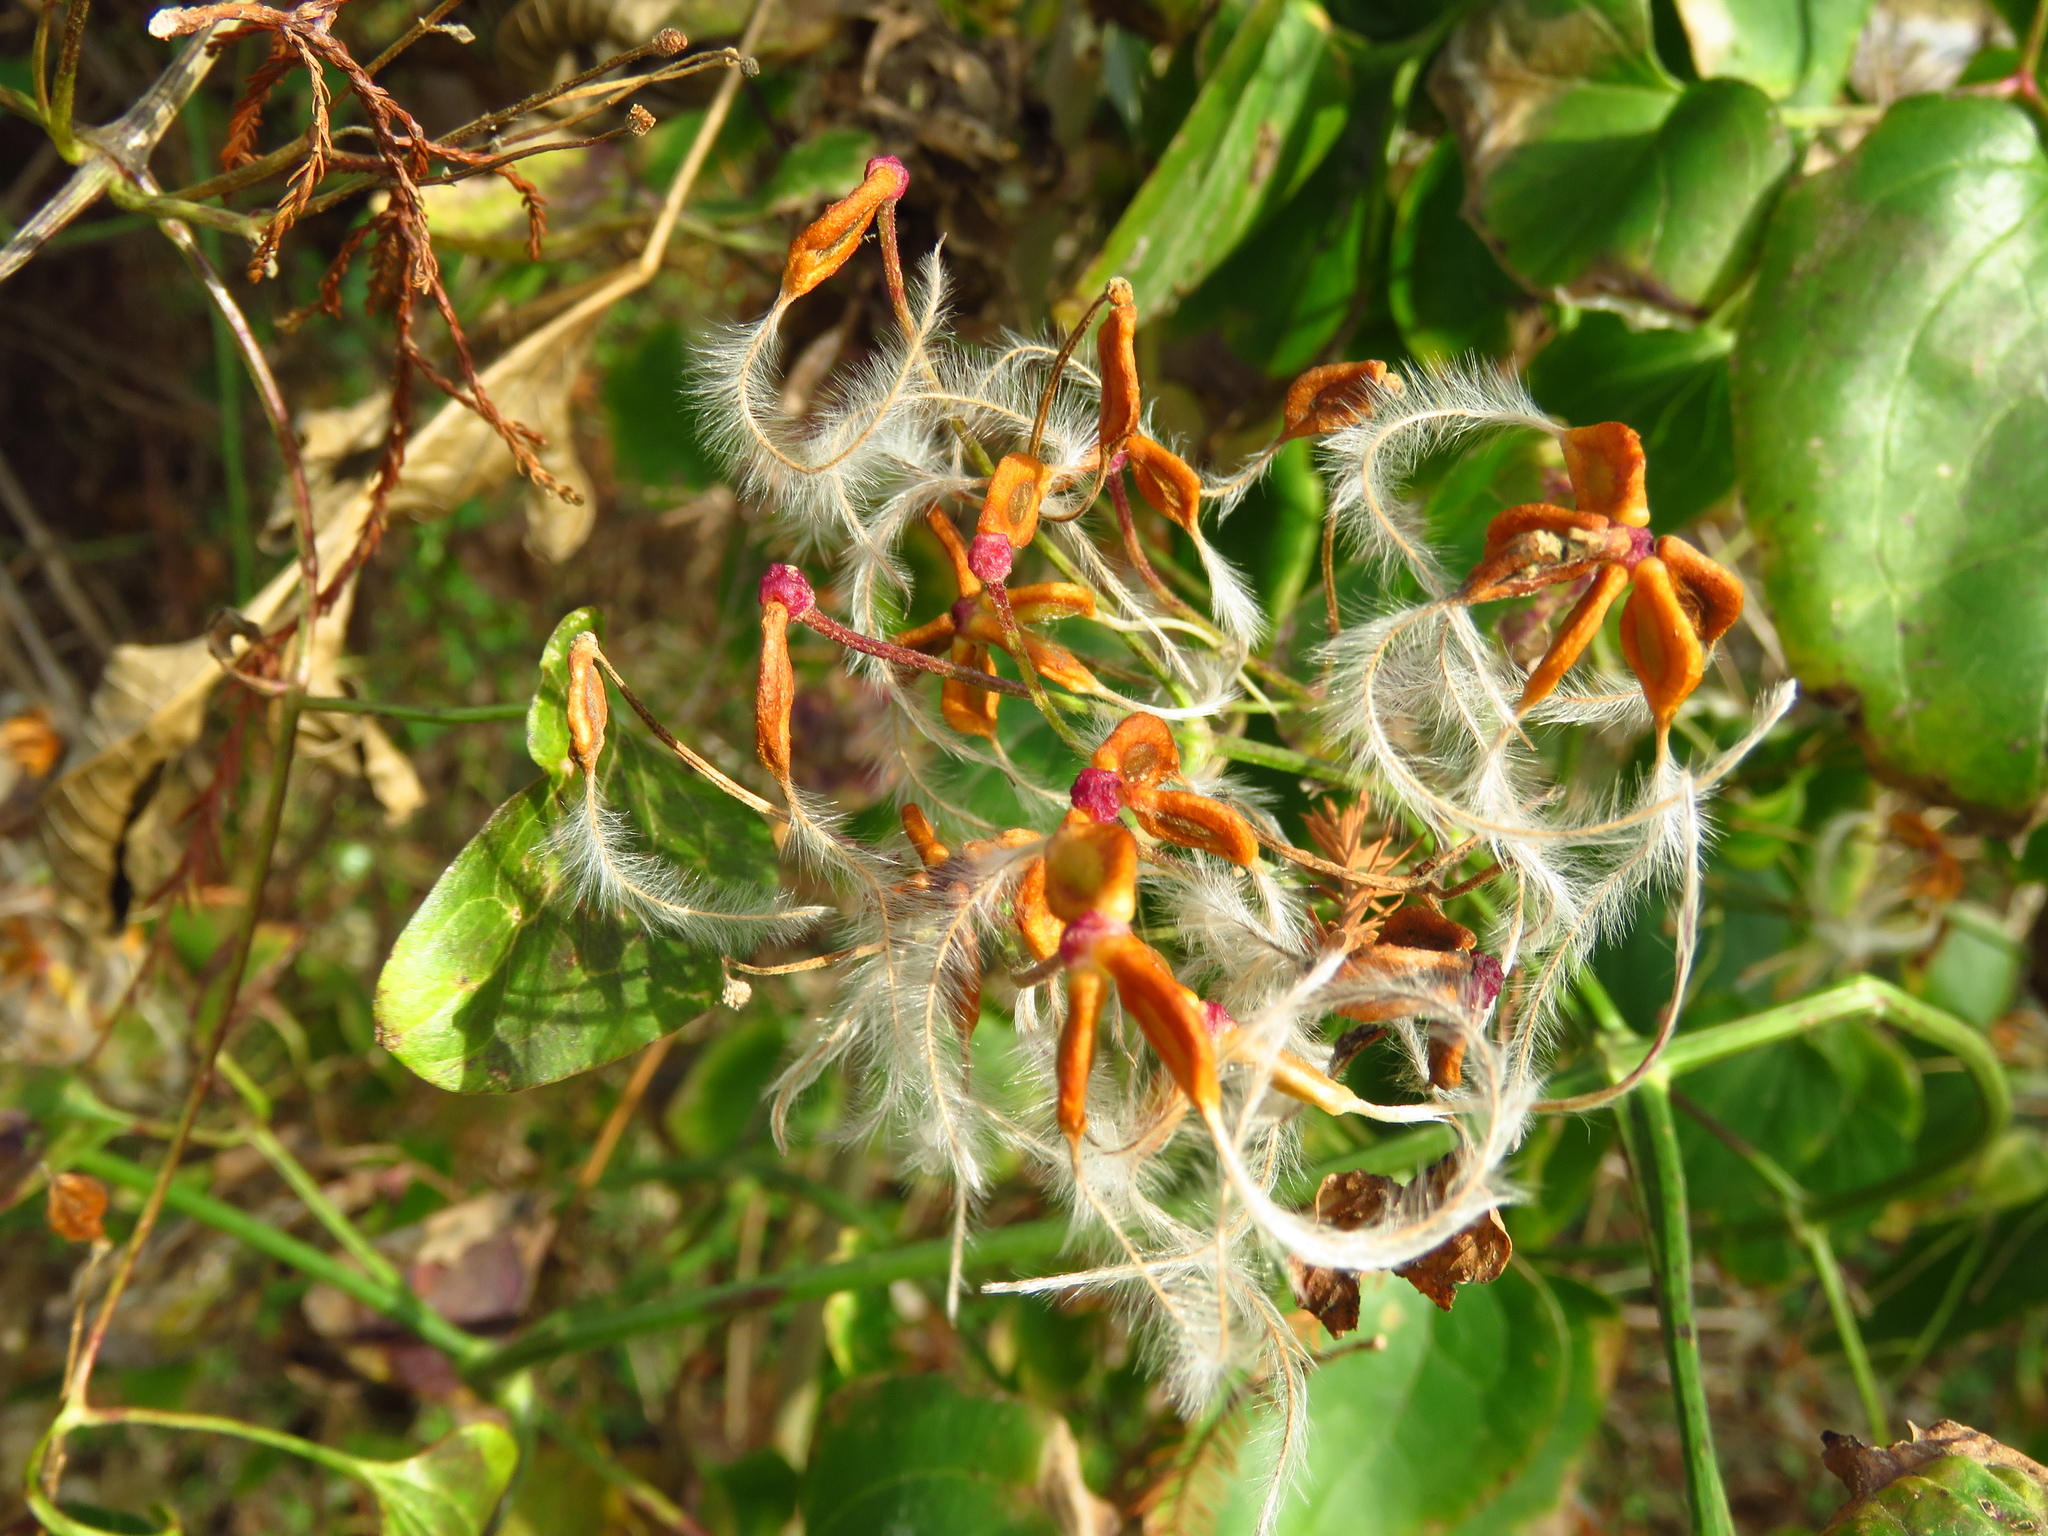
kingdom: Plantae
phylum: Tracheophyta
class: Magnoliopsida
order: Ranunculales
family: Ranunculaceae
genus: Clematis
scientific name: Clematis terniflora
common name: Sweet autumn clematis
